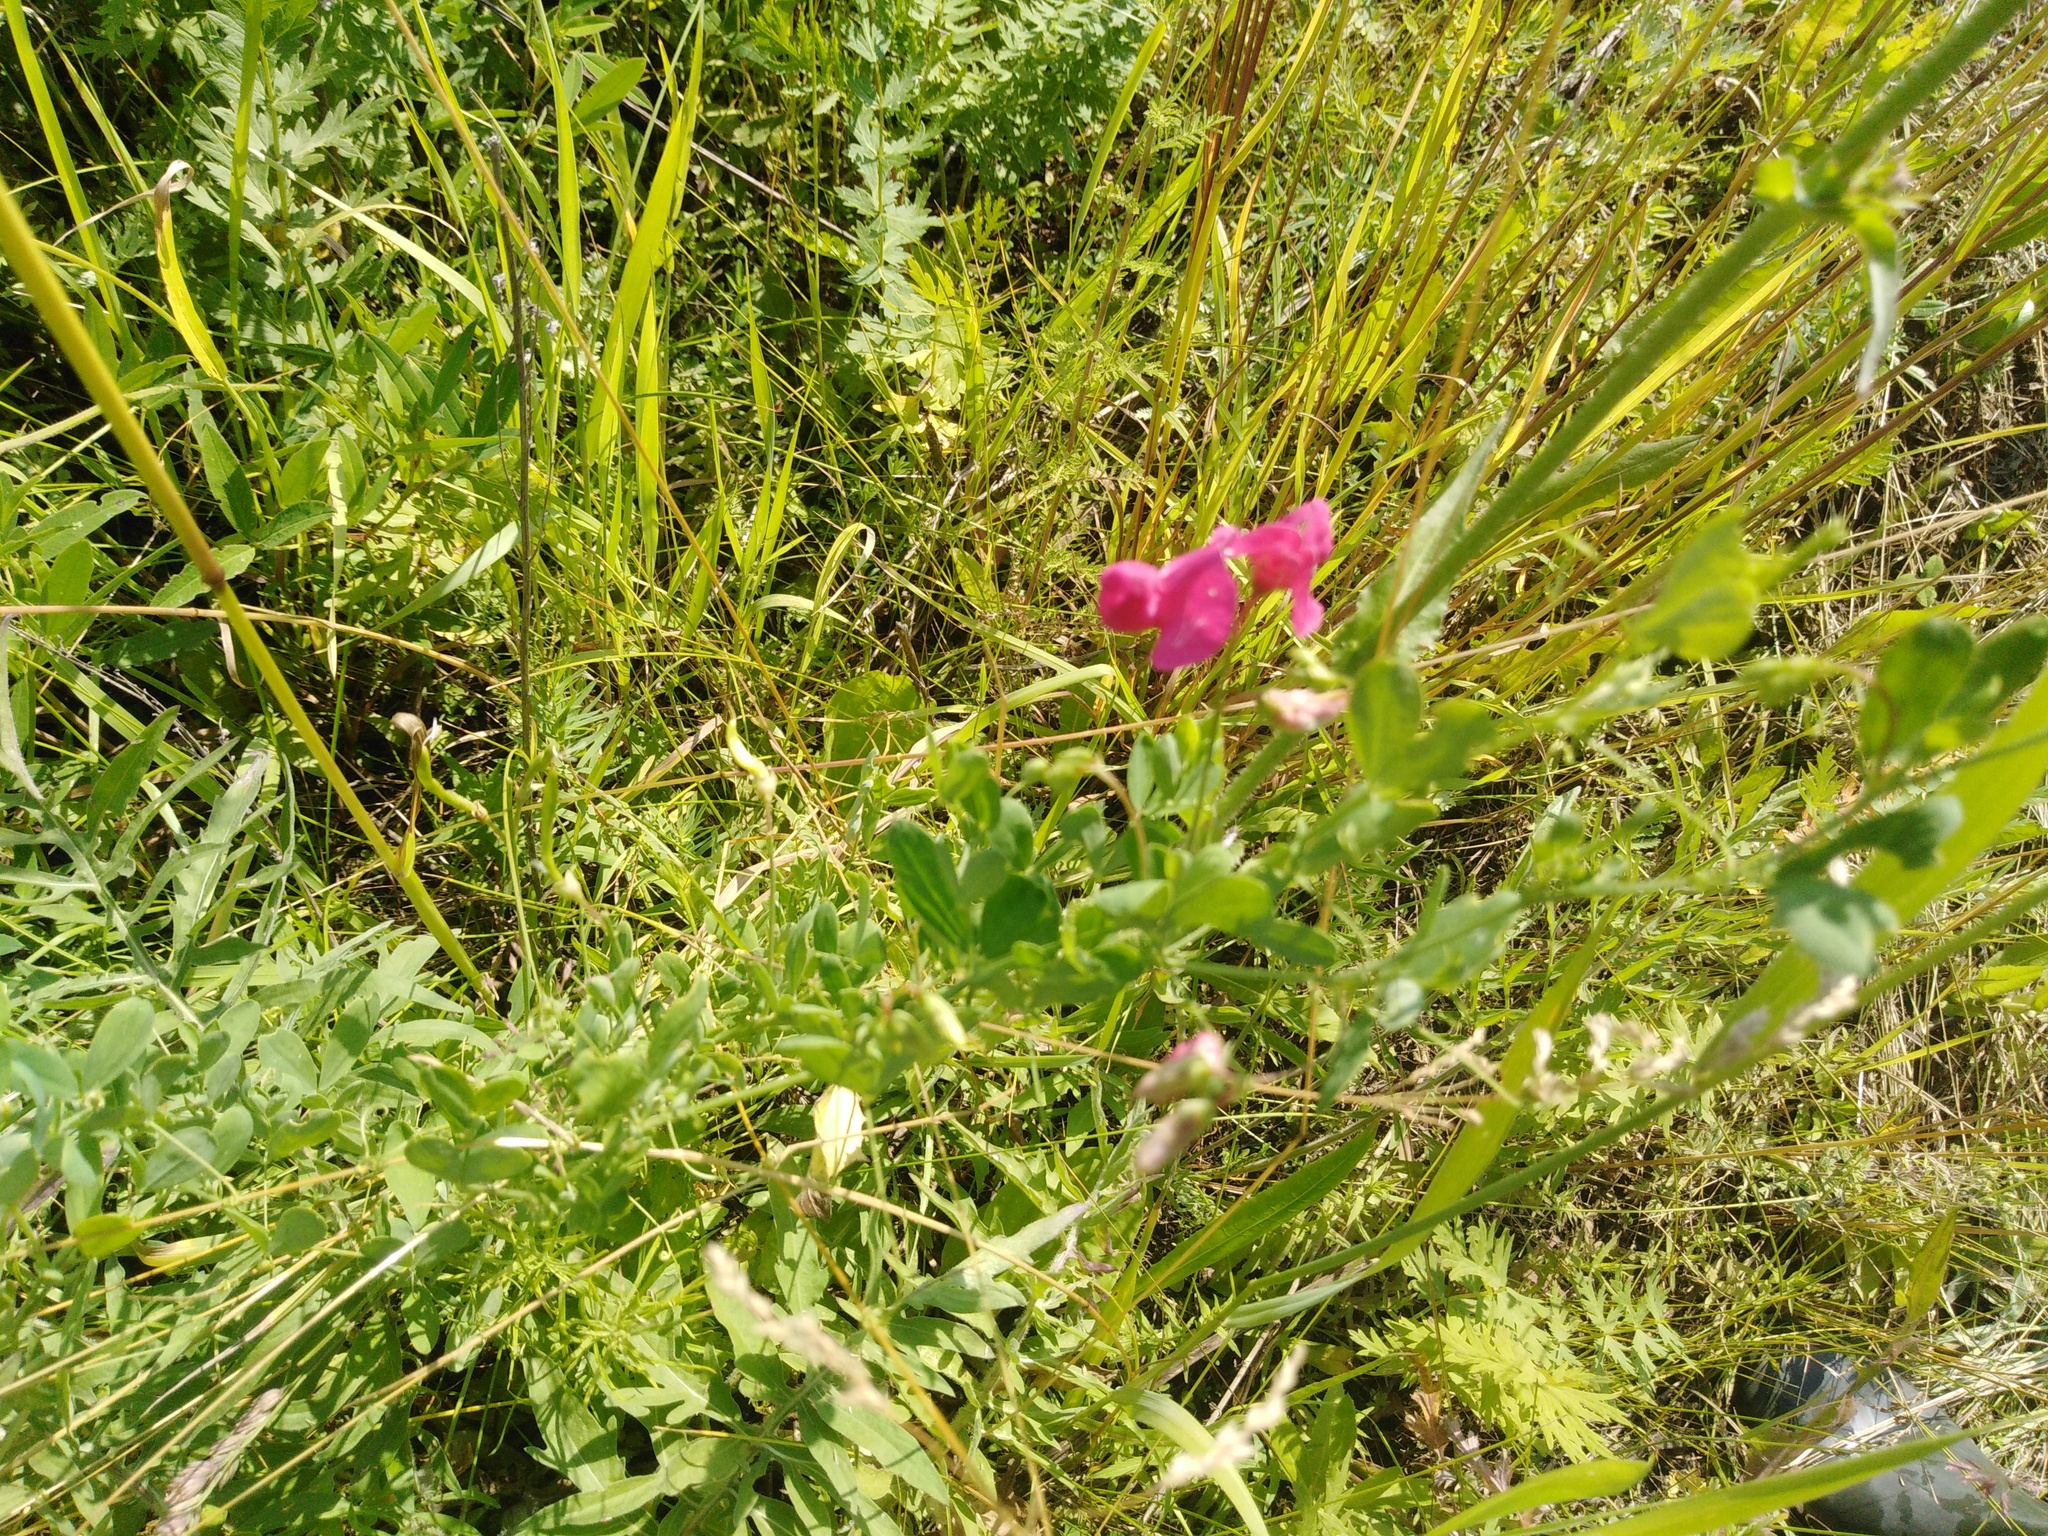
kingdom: Plantae
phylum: Tracheophyta
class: Magnoliopsida
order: Fabales
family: Fabaceae
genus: Lathyrus
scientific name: Lathyrus tuberosus
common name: Tuberous pea
